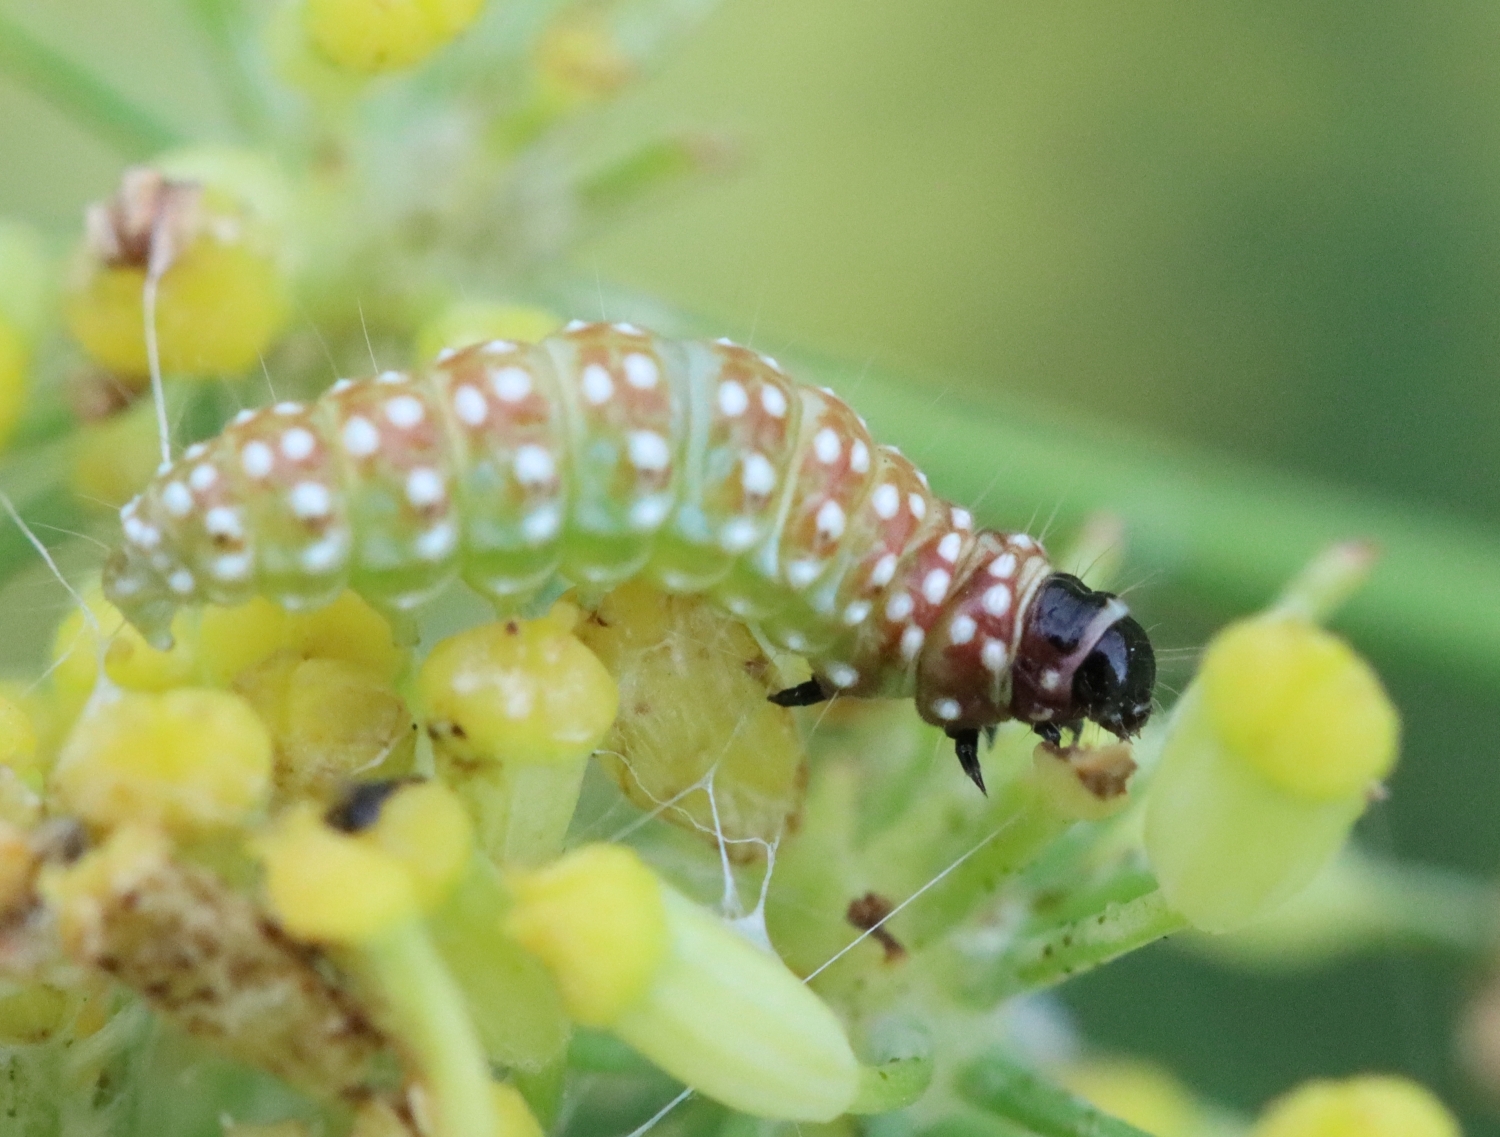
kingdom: Animalia
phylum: Arthropoda
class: Insecta
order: Lepidoptera
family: Depressariidae
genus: Depressaria
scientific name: Depressaria depressana
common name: Lost flat-body
